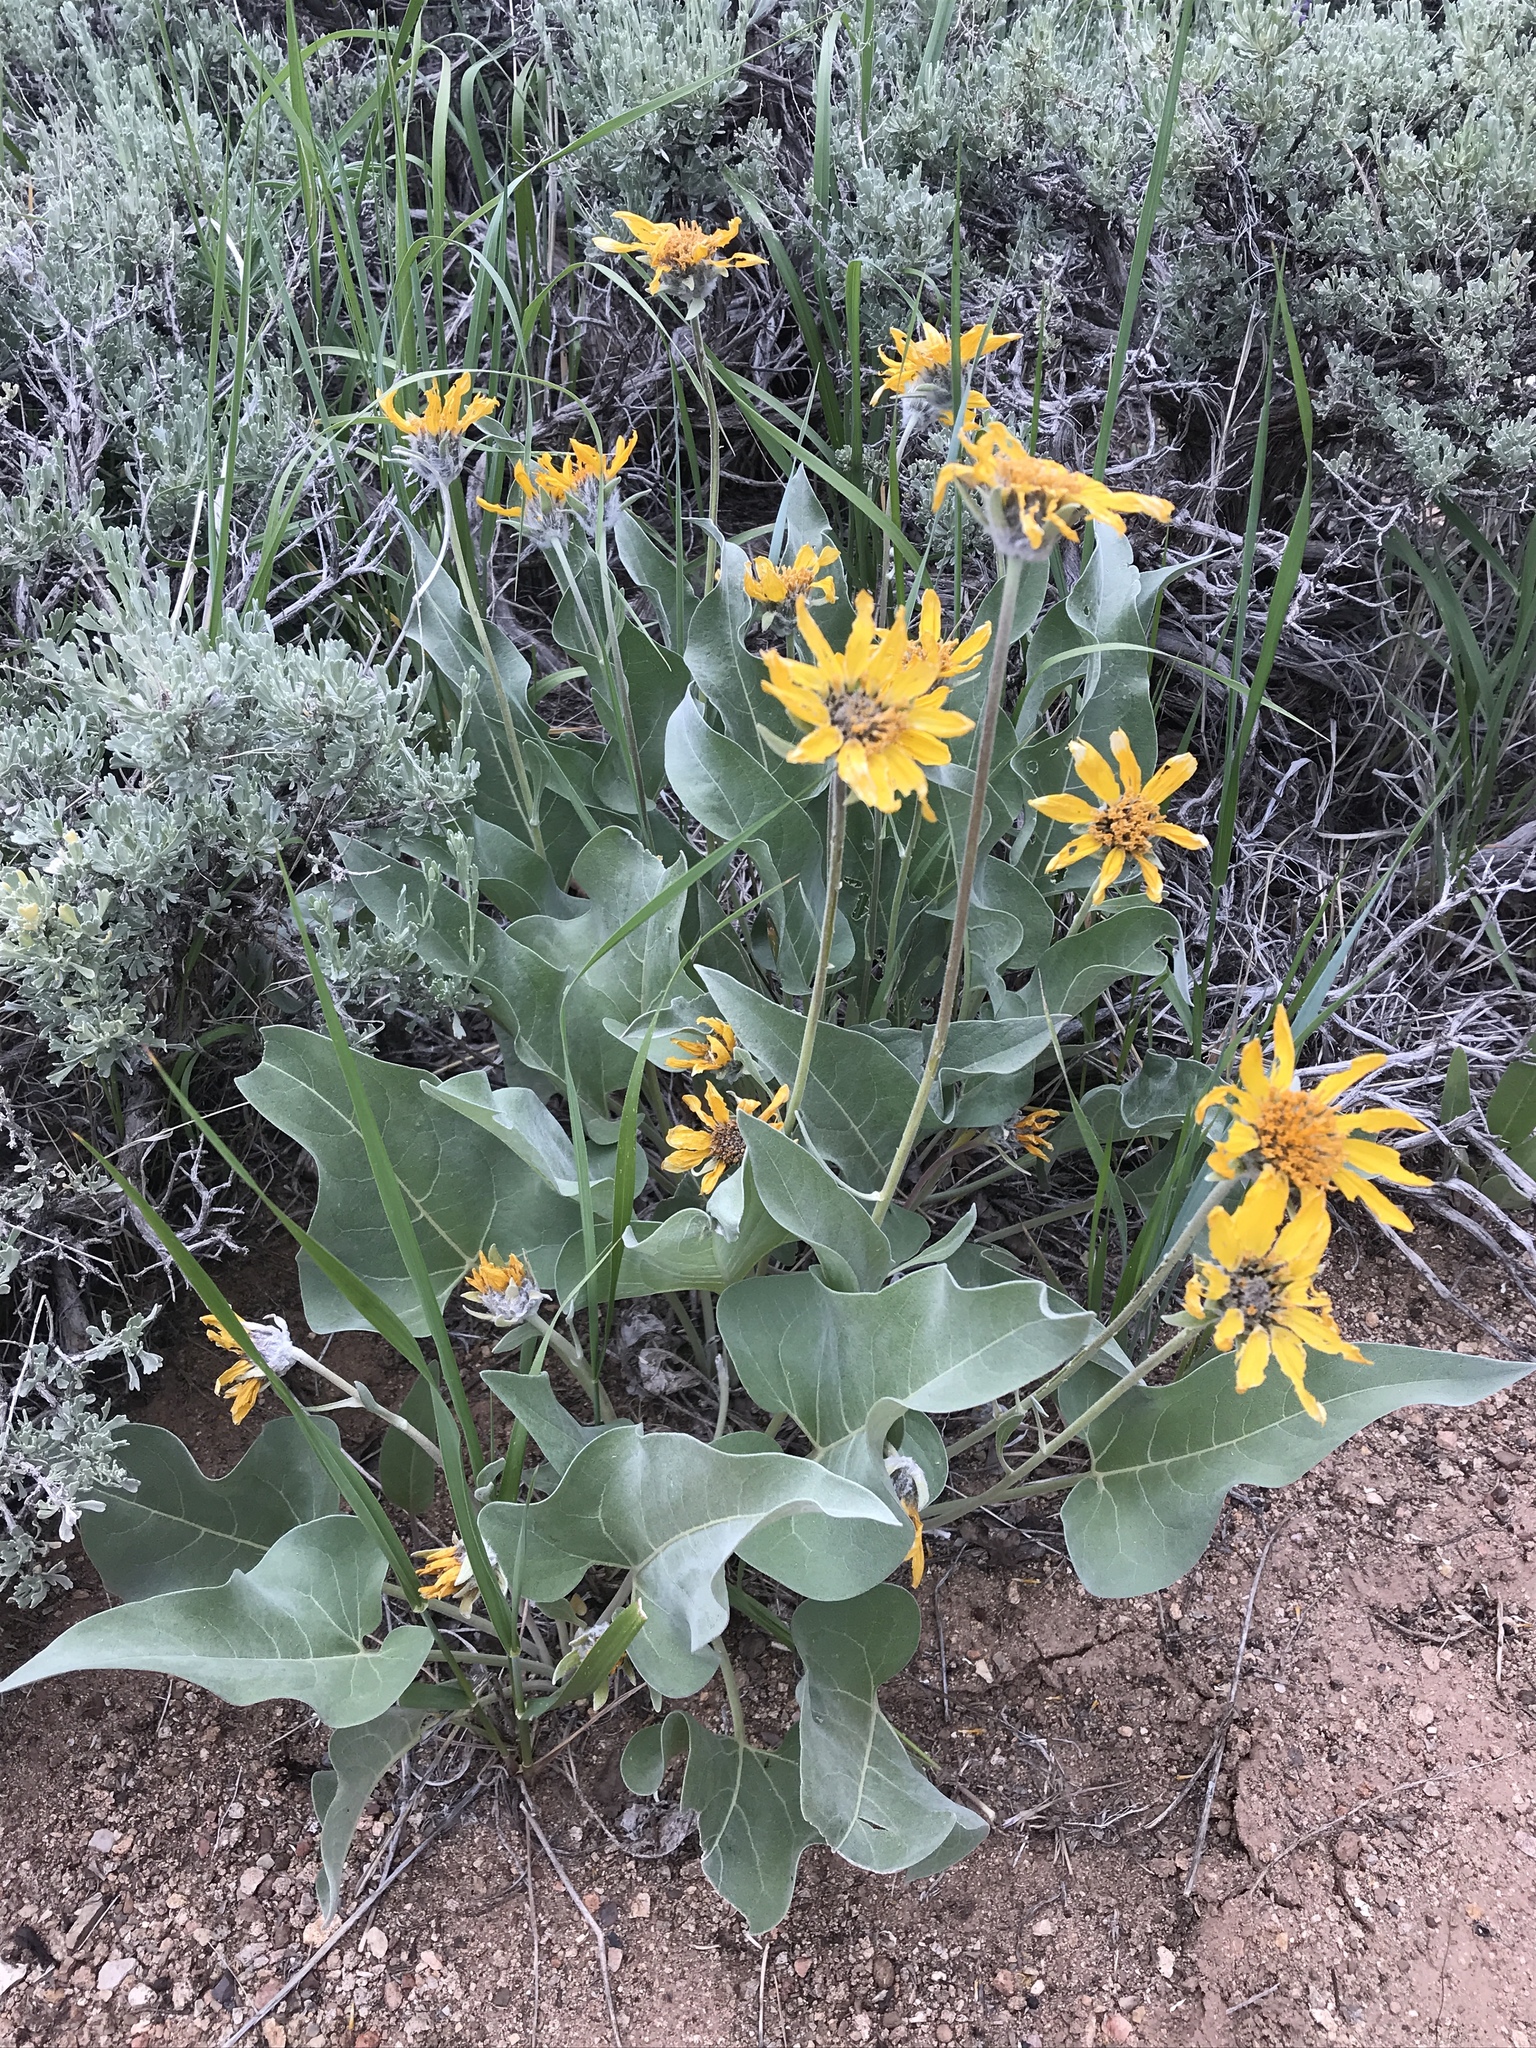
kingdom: Plantae
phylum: Tracheophyta
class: Magnoliopsida
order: Asterales
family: Asteraceae
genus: Wyethia
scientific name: Wyethia sagittata
